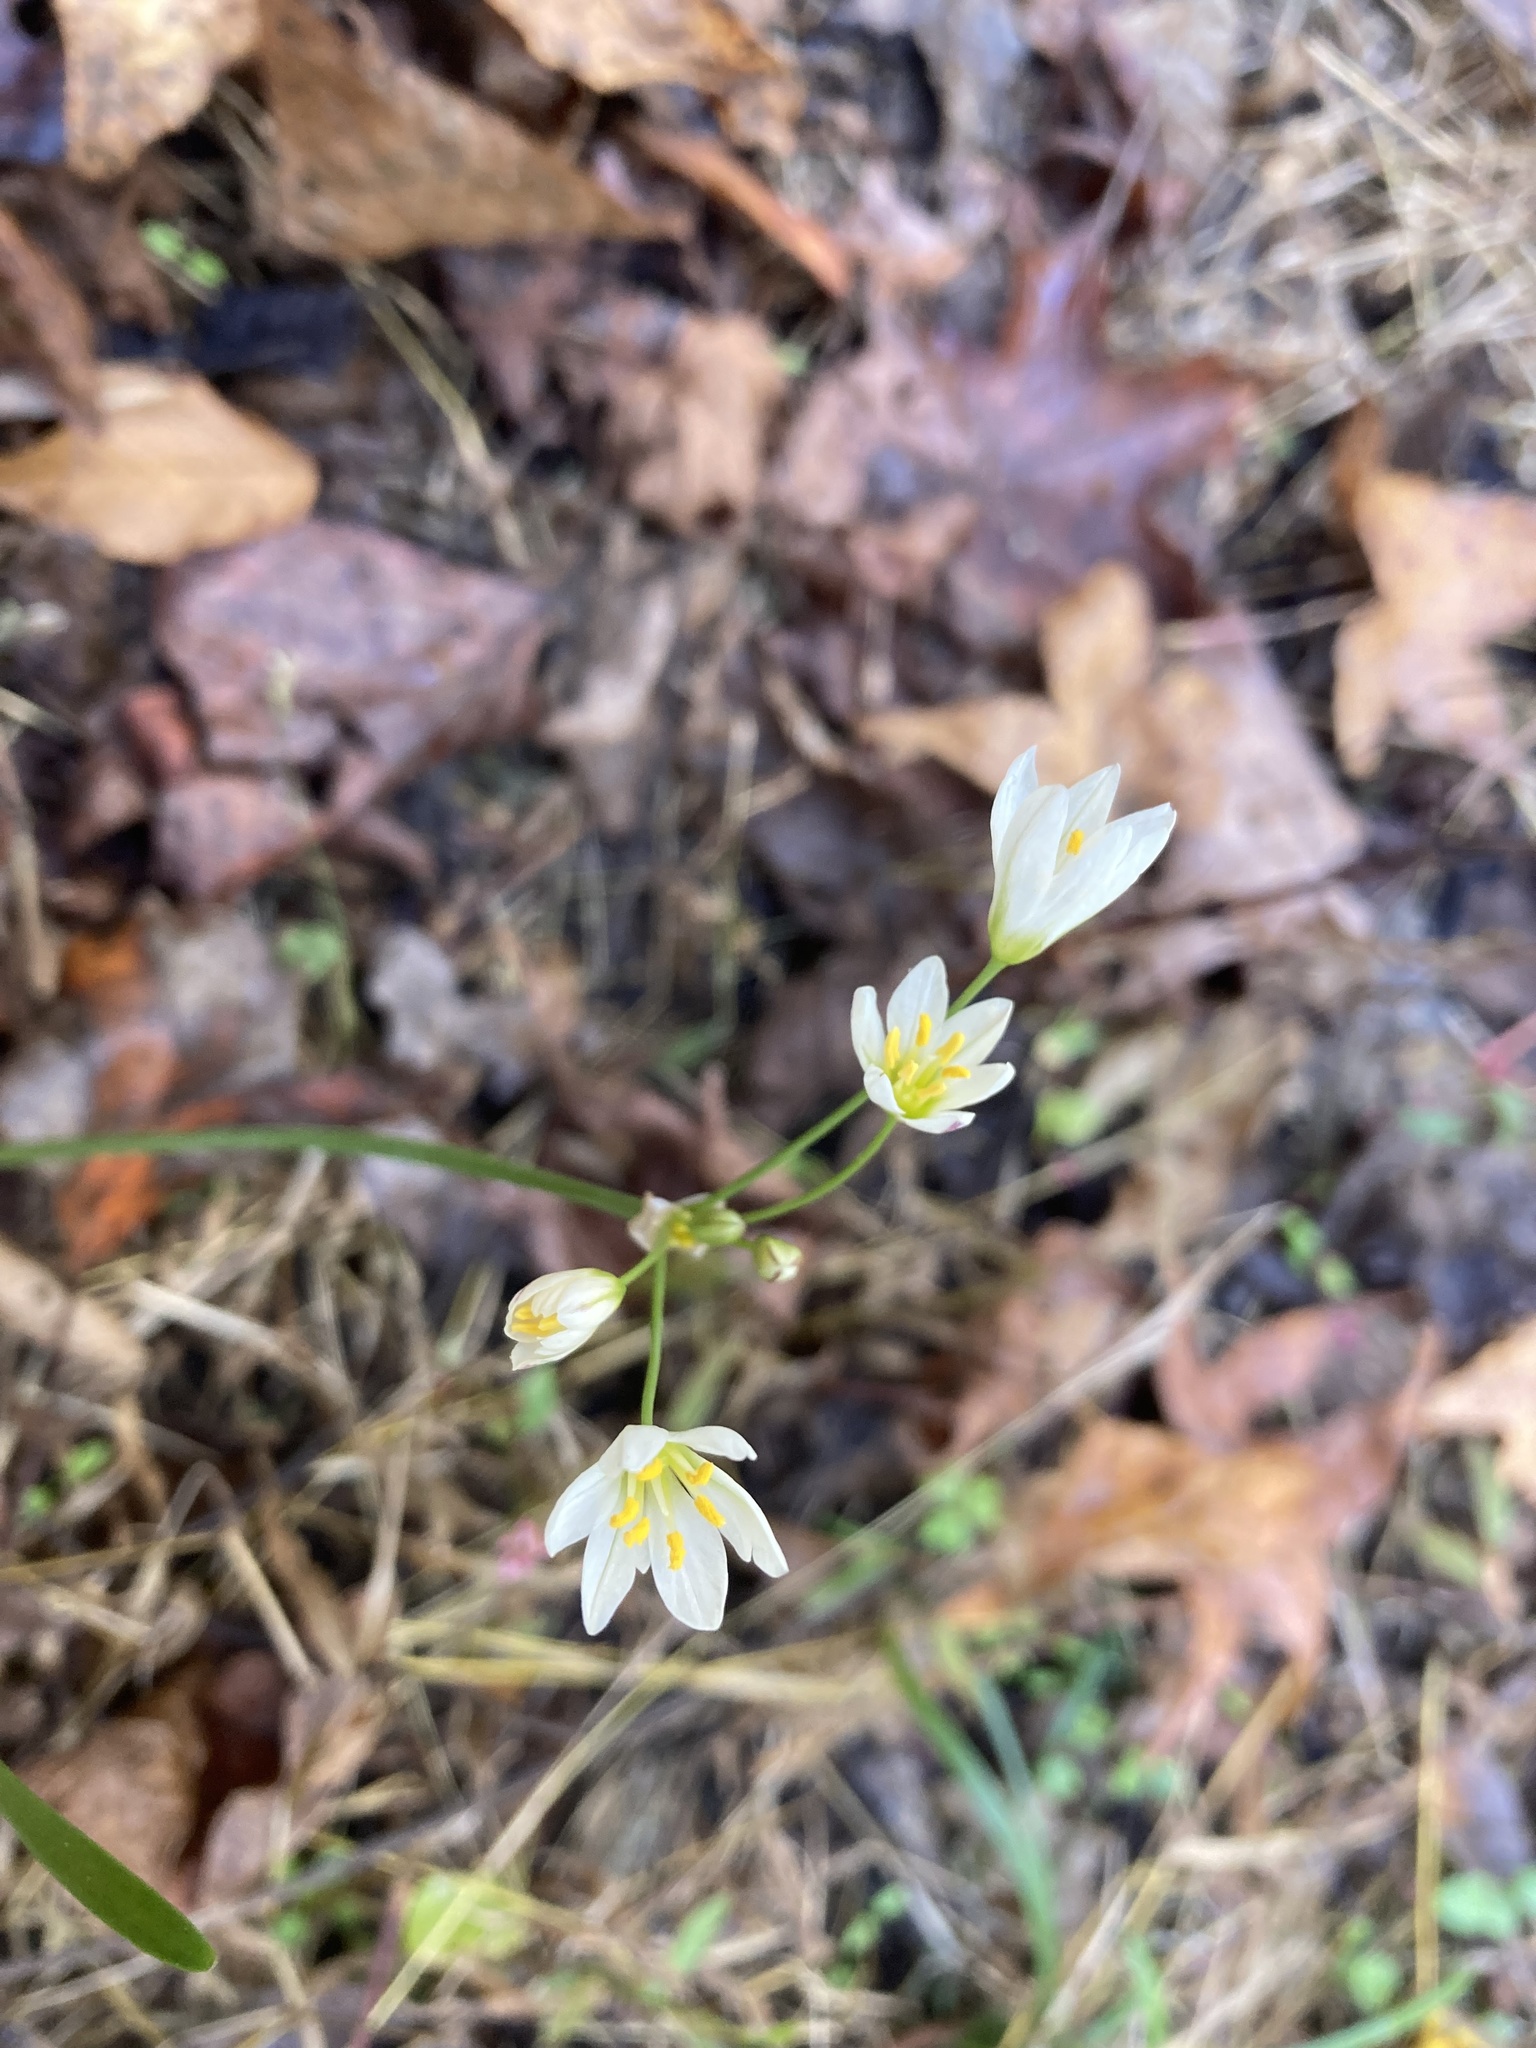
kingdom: Plantae
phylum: Tracheophyta
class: Liliopsida
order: Asparagales
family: Amaryllidaceae
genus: Nothoscordum
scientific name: Nothoscordum bivalve
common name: Crow-poison
